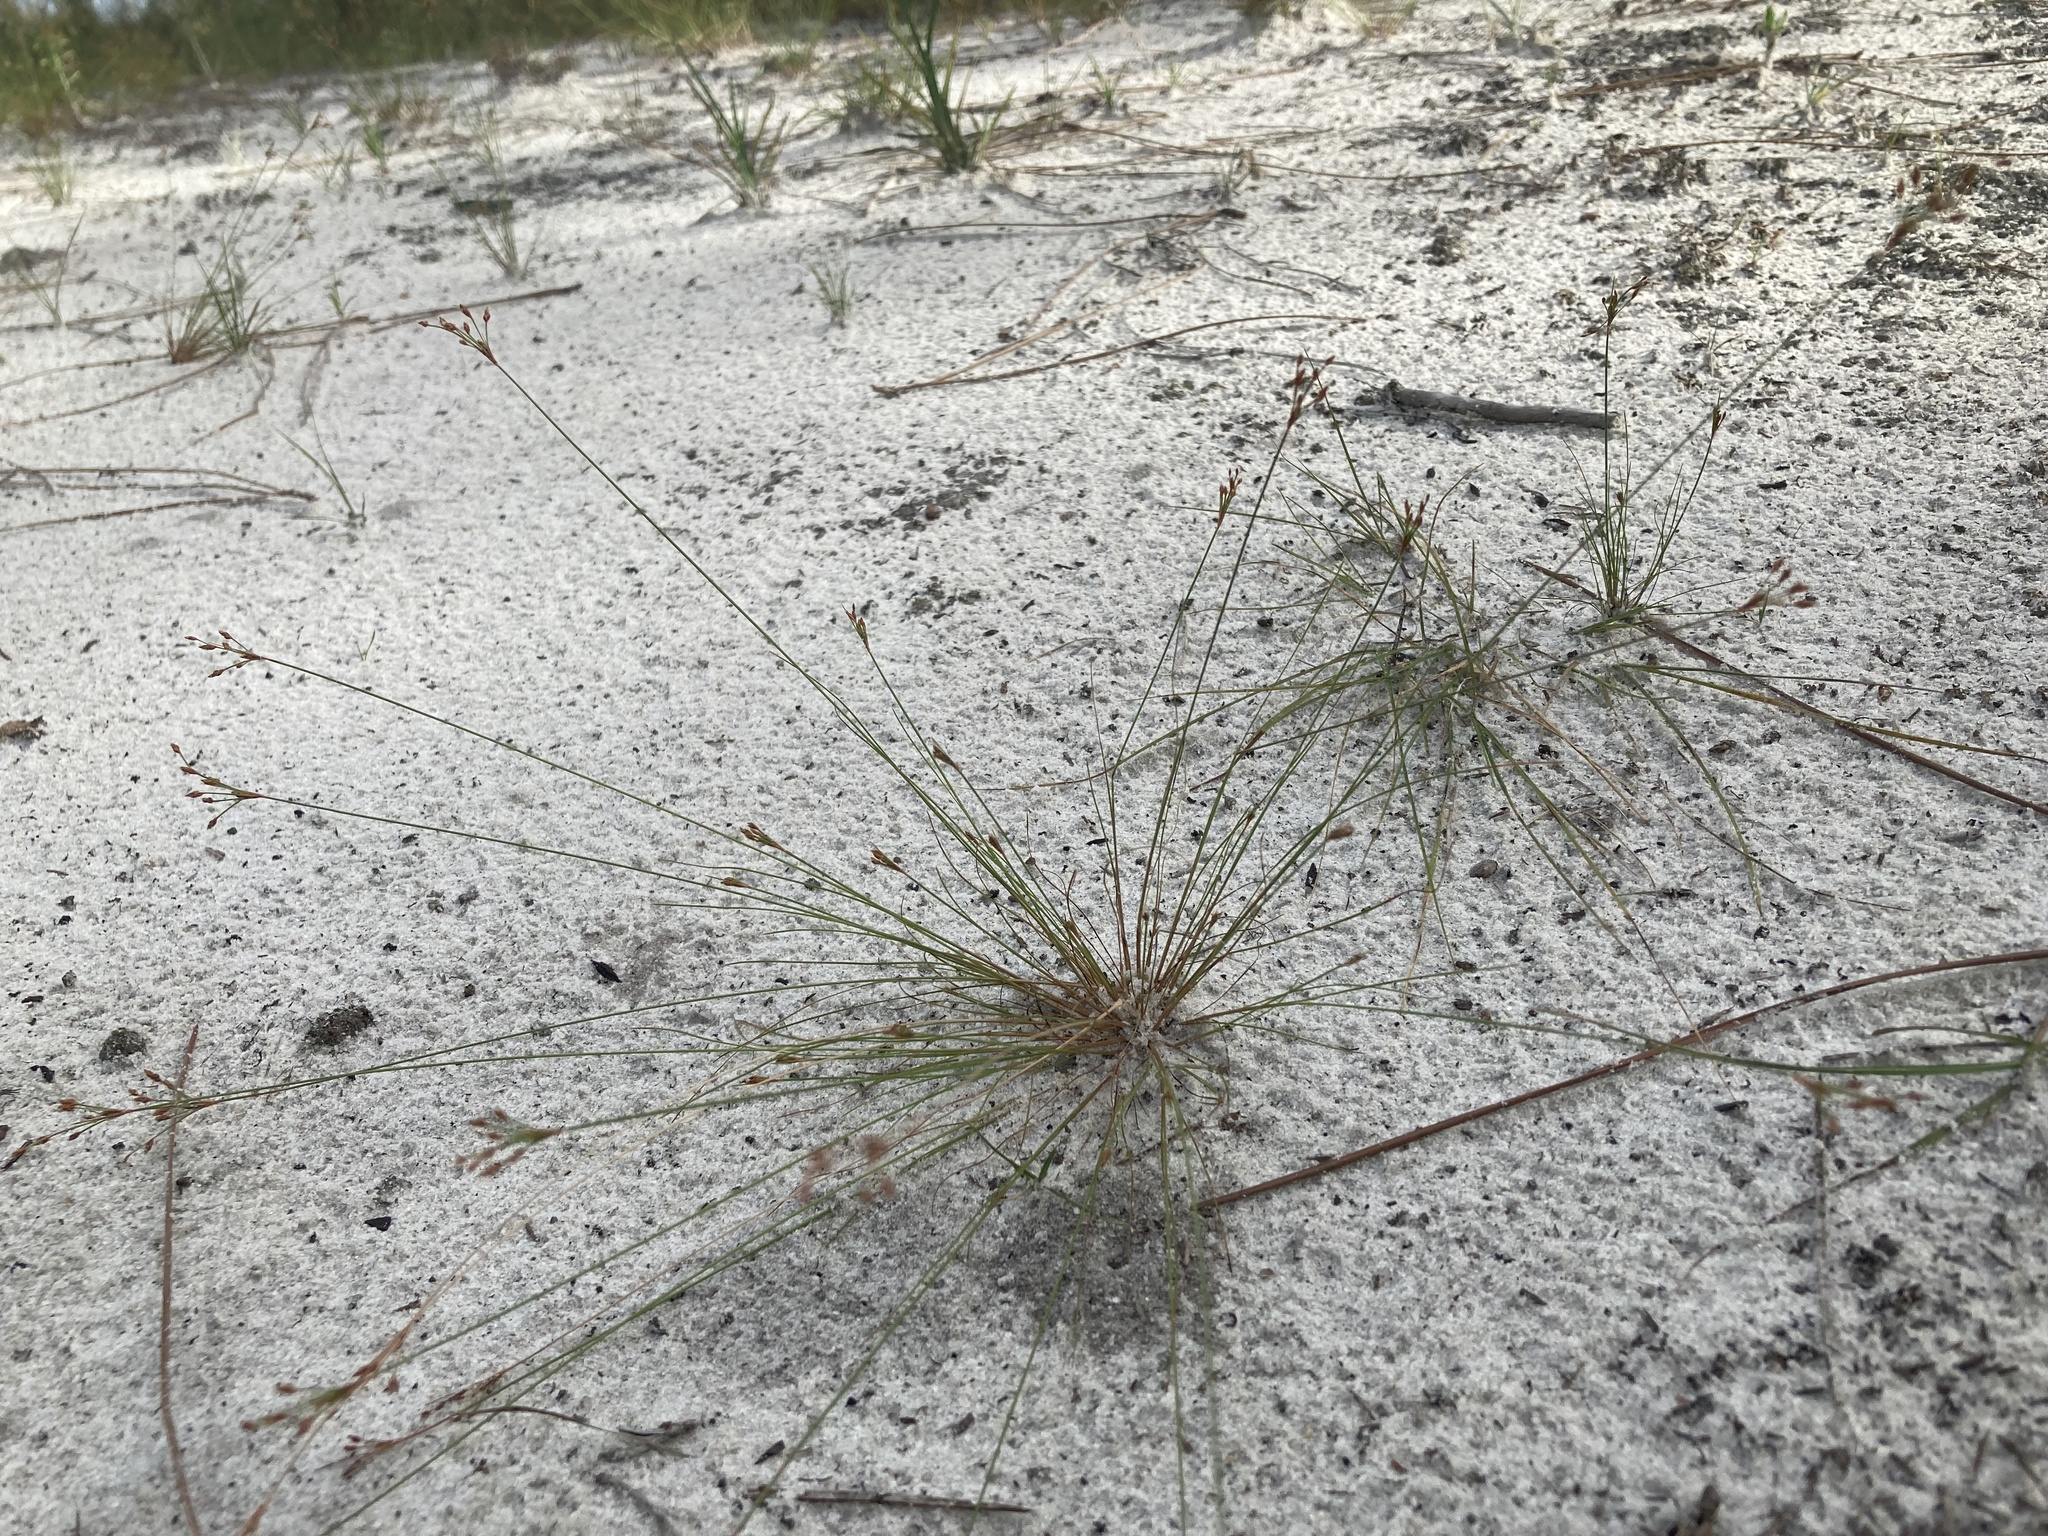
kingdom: Plantae
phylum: Tracheophyta
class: Liliopsida
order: Poales
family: Cyperaceae
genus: Bulbostylis
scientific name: Bulbostylis ciliatifolia
